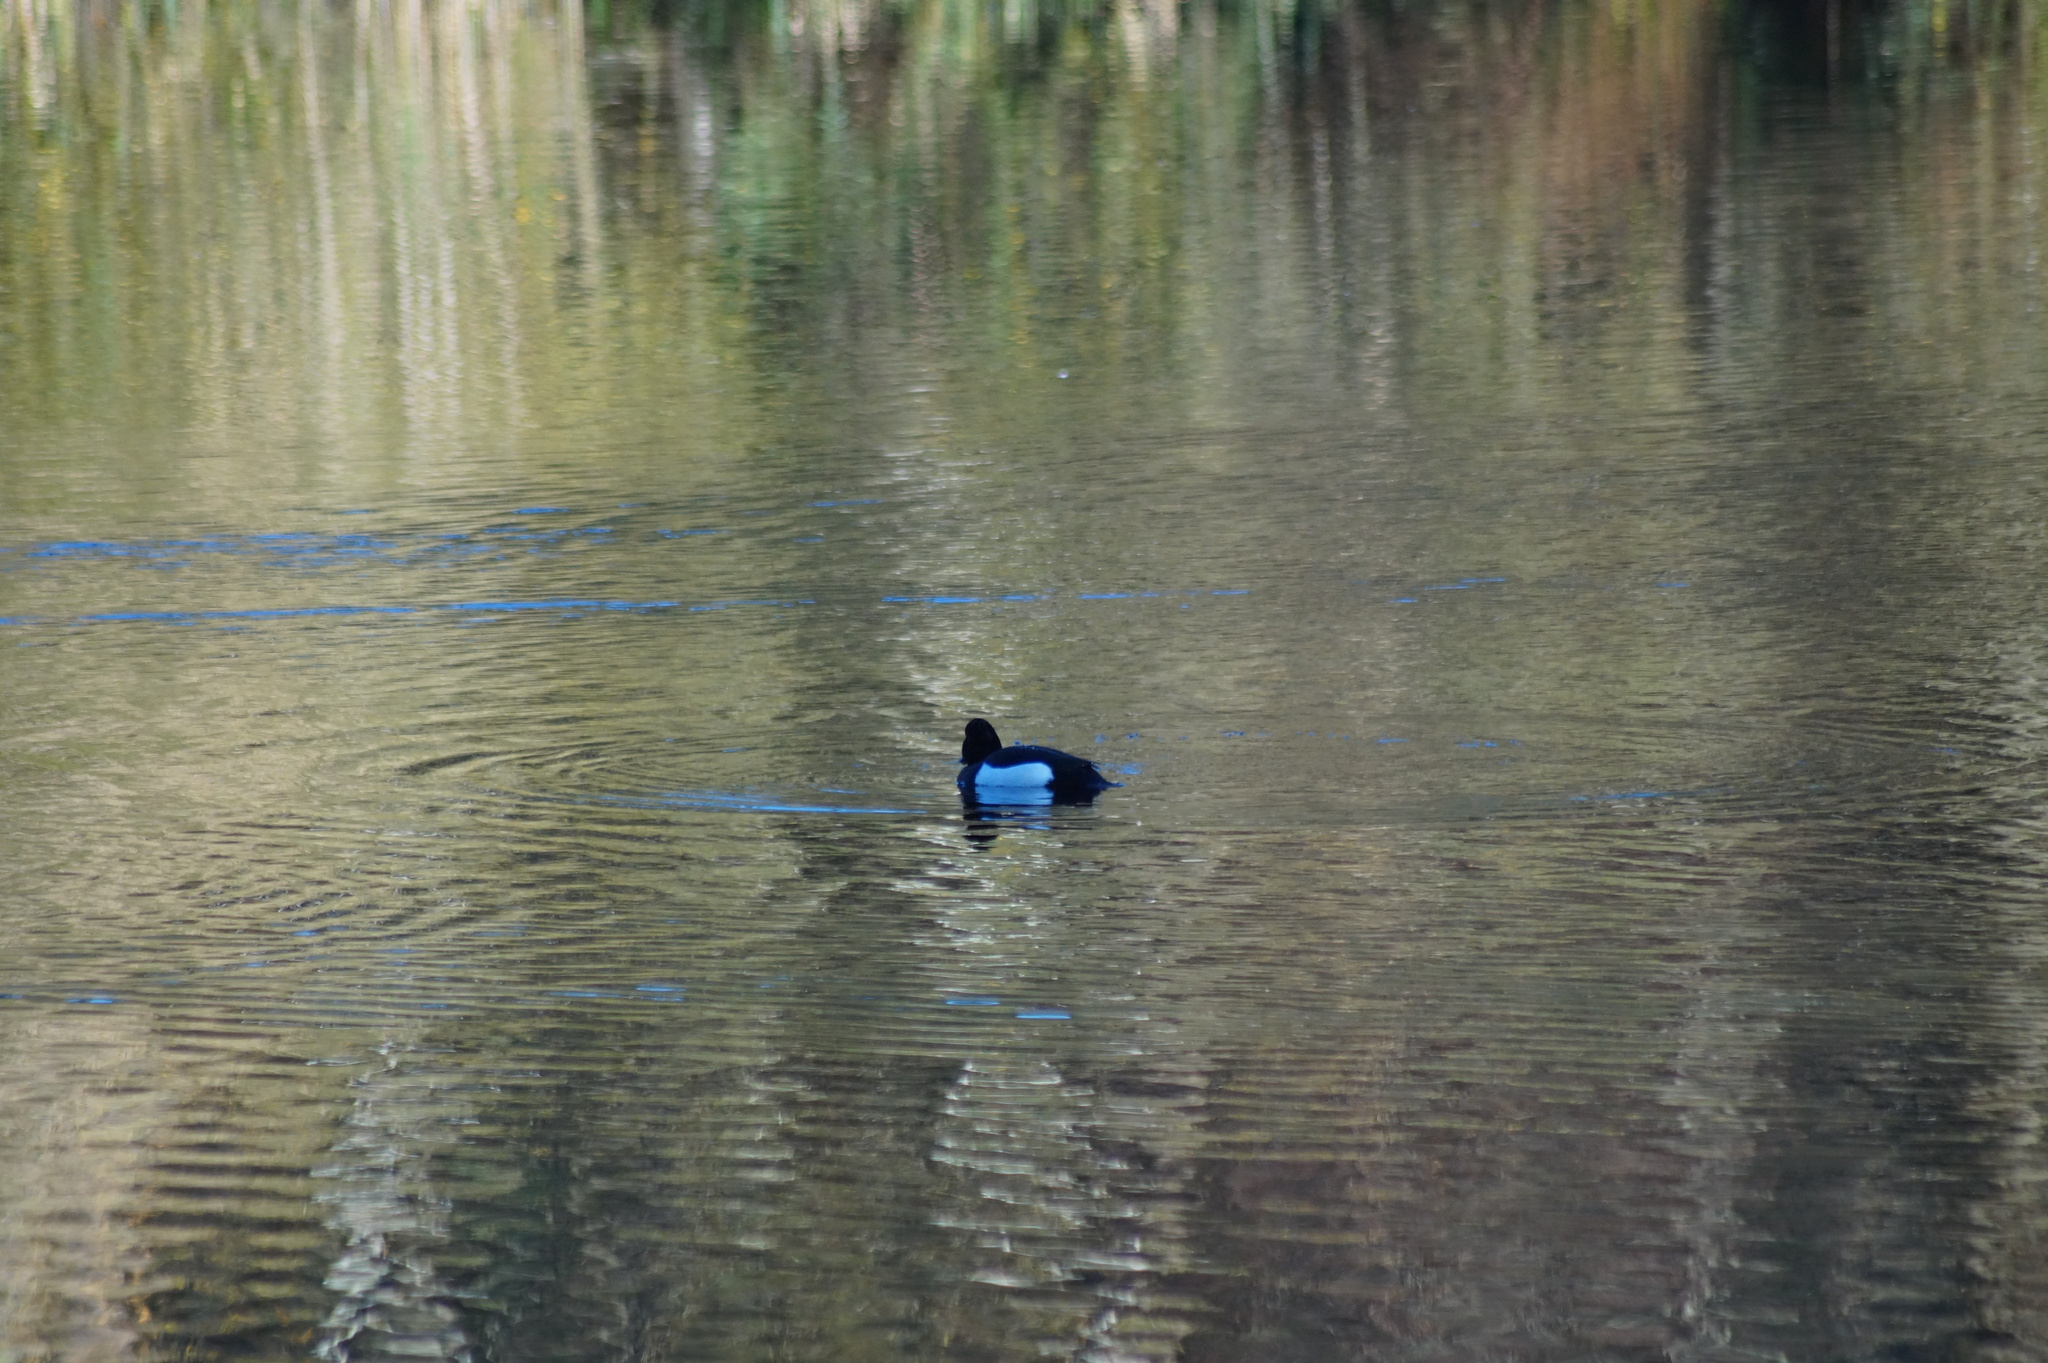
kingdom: Animalia
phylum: Chordata
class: Aves
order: Anseriformes
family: Anatidae
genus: Aythya
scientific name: Aythya fuligula
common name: Tufted duck
